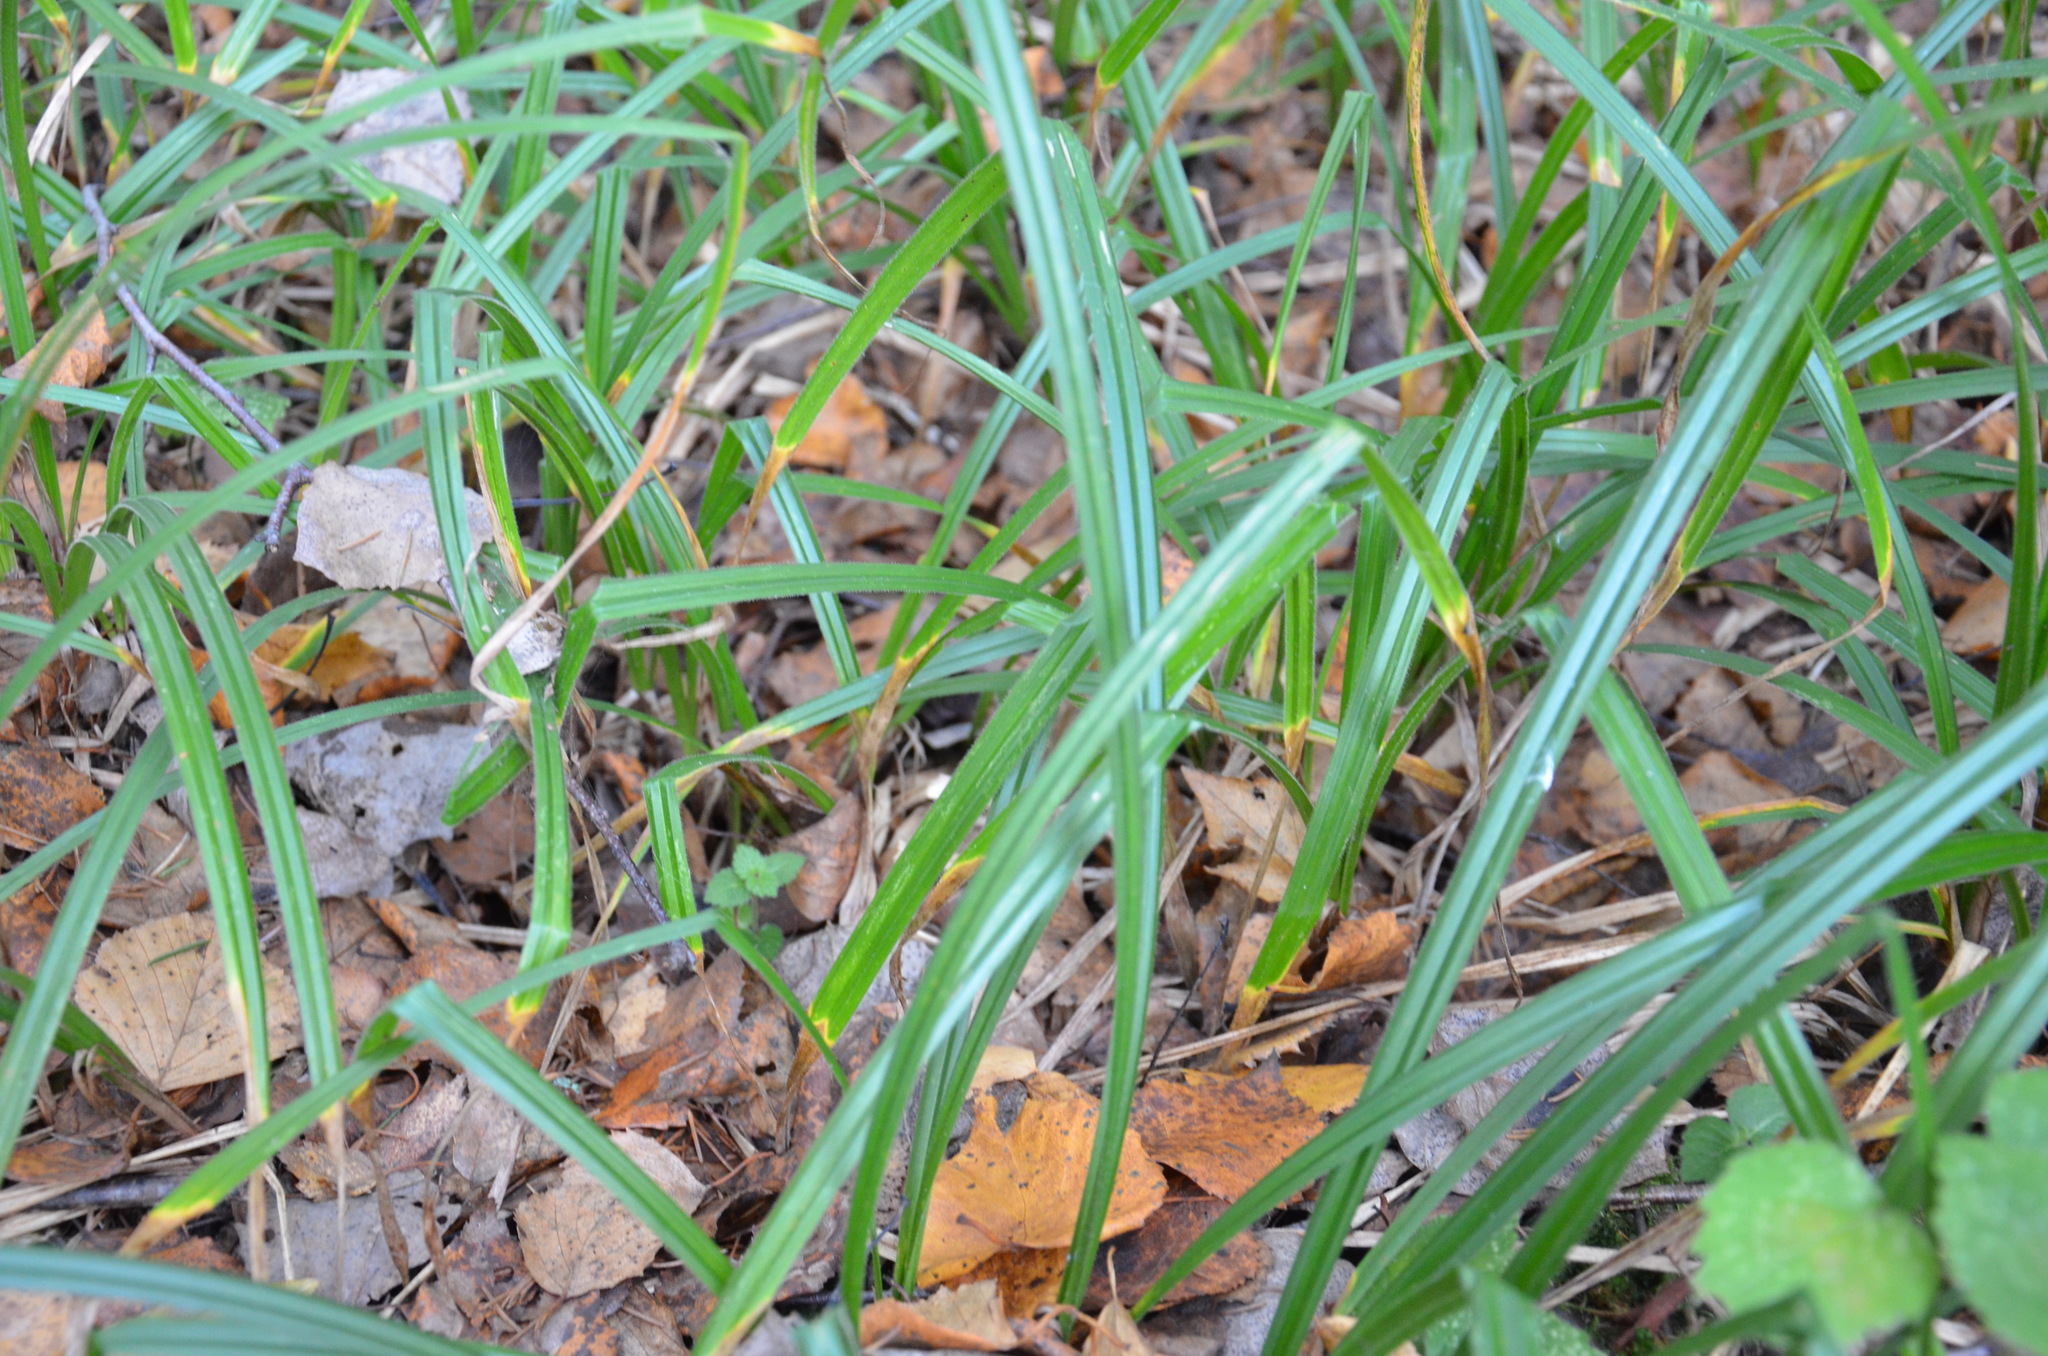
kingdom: Plantae
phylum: Tracheophyta
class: Liliopsida
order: Poales
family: Cyperaceae
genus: Carex
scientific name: Carex pilosa
